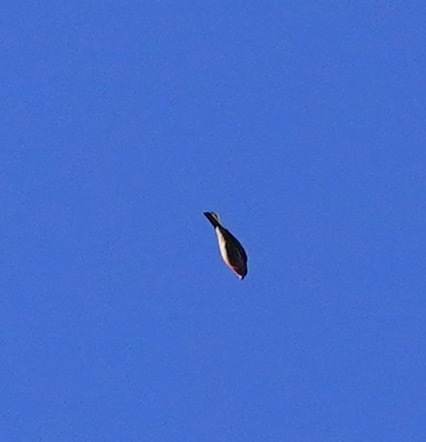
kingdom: Animalia
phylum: Chordata
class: Aves
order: Passeriformes
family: Fringillidae
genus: Haemorhous
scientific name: Haemorhous mexicanus
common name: House finch
